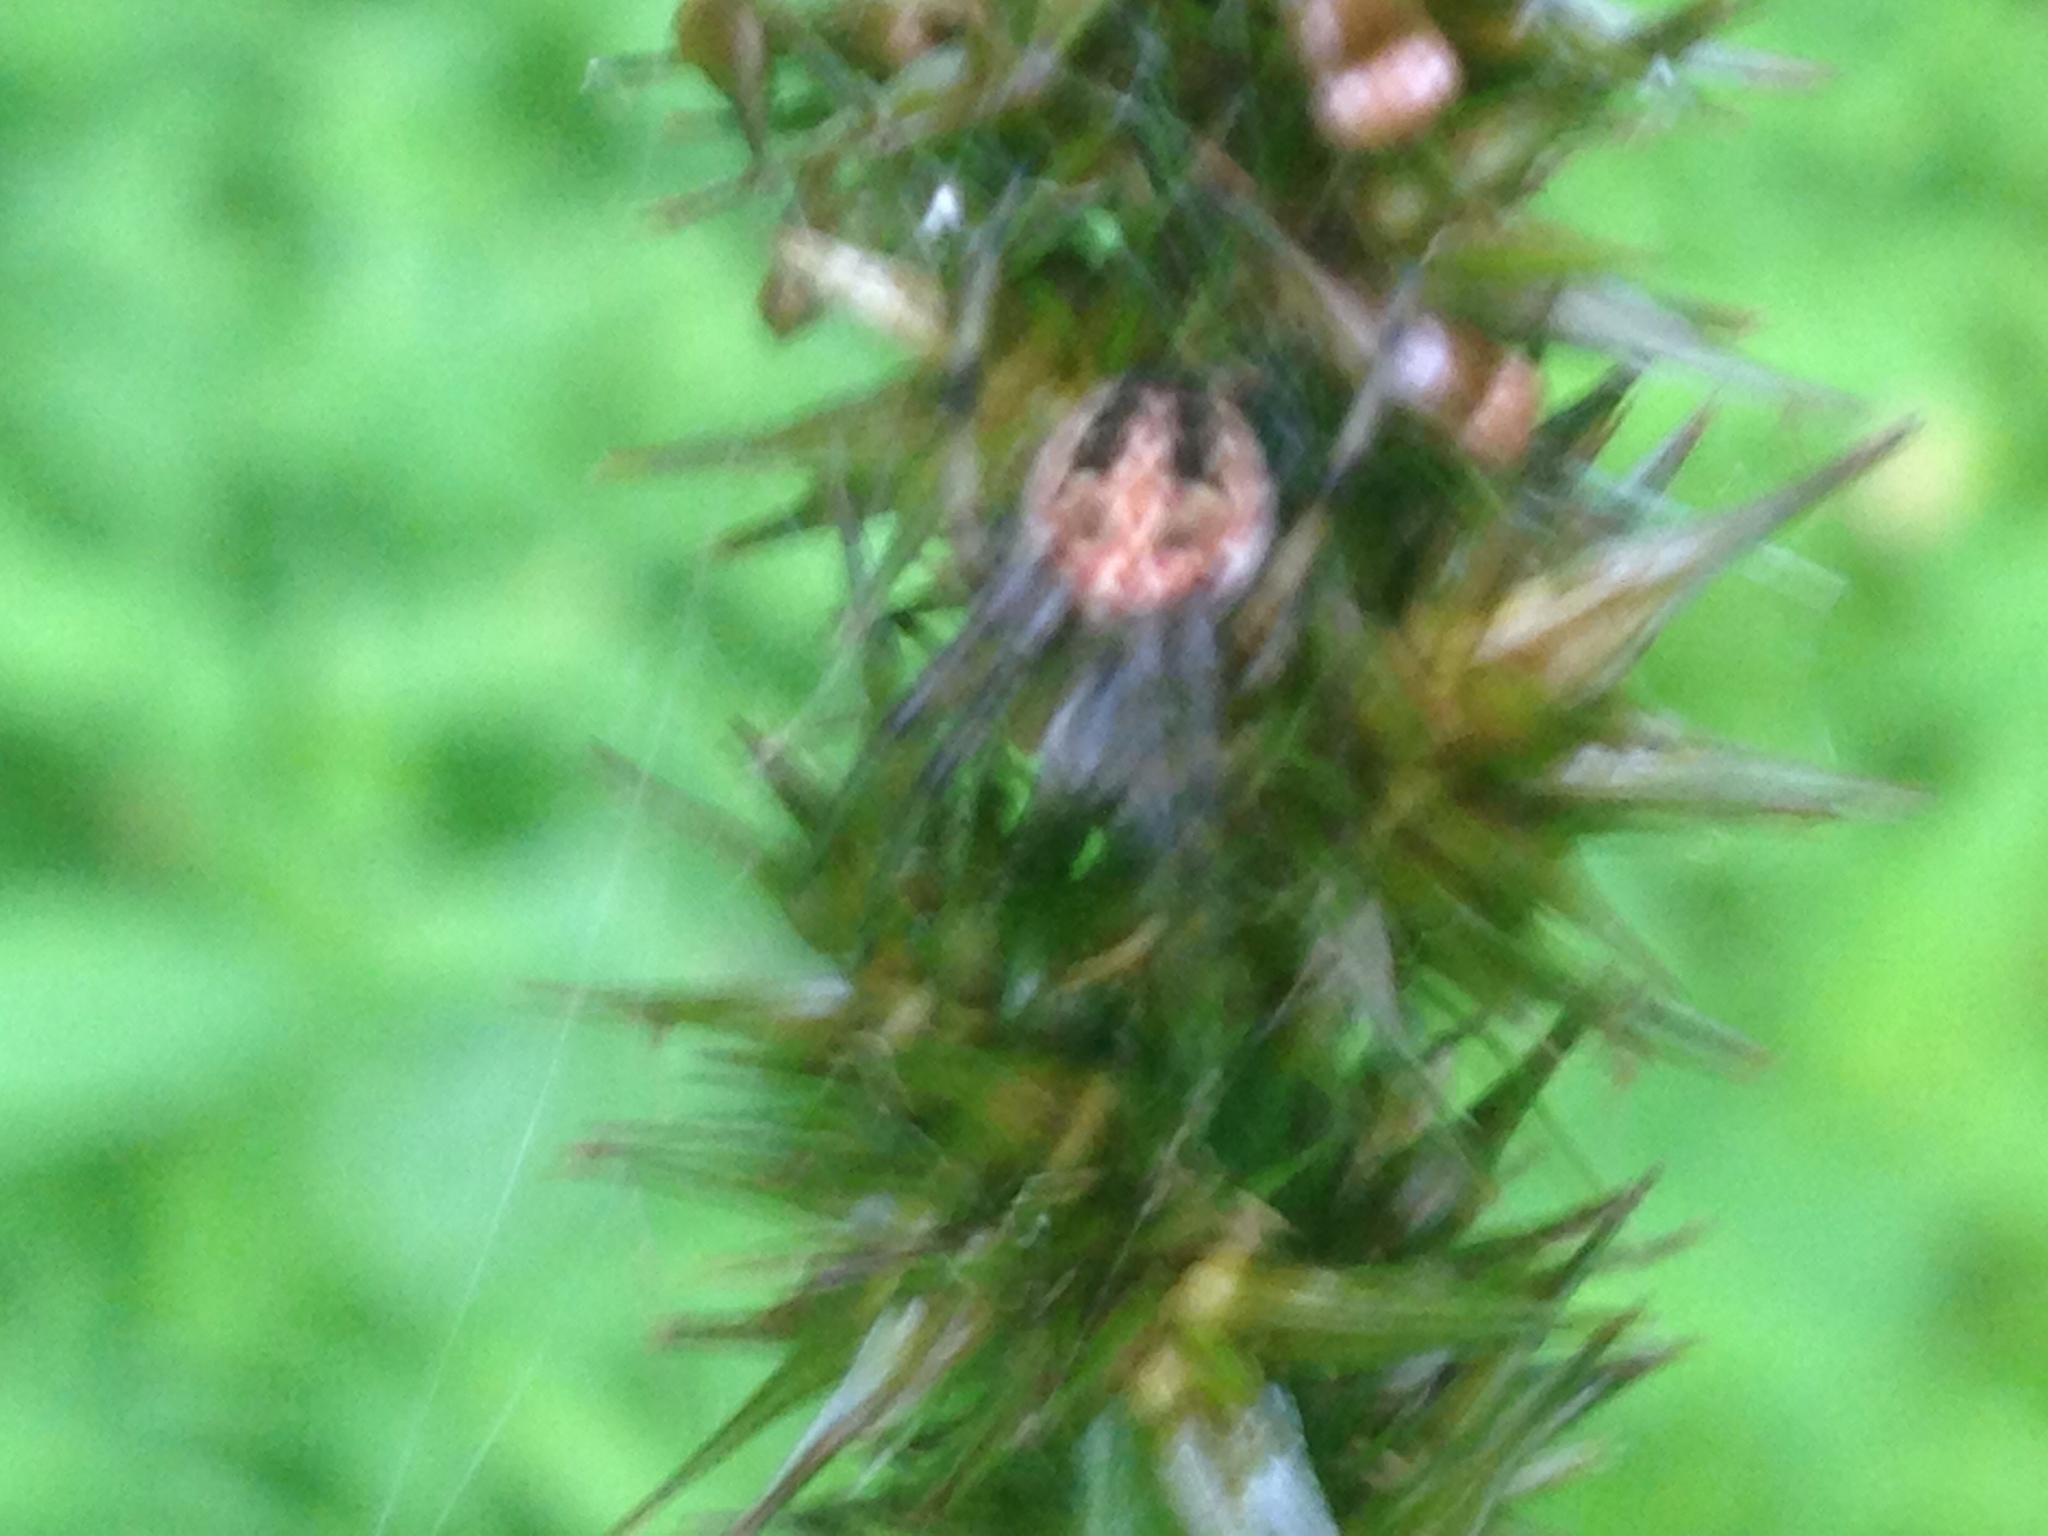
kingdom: Animalia
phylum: Arthropoda
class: Arachnida
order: Araneae
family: Araneidae
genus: Neoscona
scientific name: Neoscona arabesca
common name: Orb weavers
